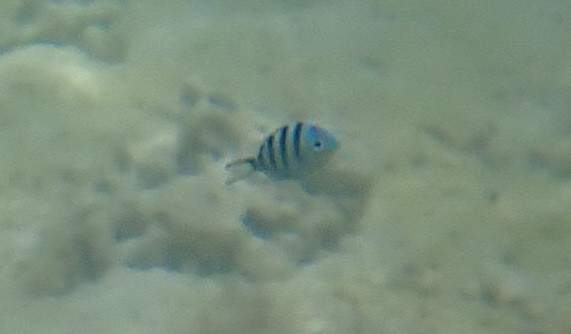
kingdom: Animalia
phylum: Chordata
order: Perciformes
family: Pomacentridae
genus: Abudefduf
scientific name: Abudefduf sexfasciatus
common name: Scissortail sergeant
